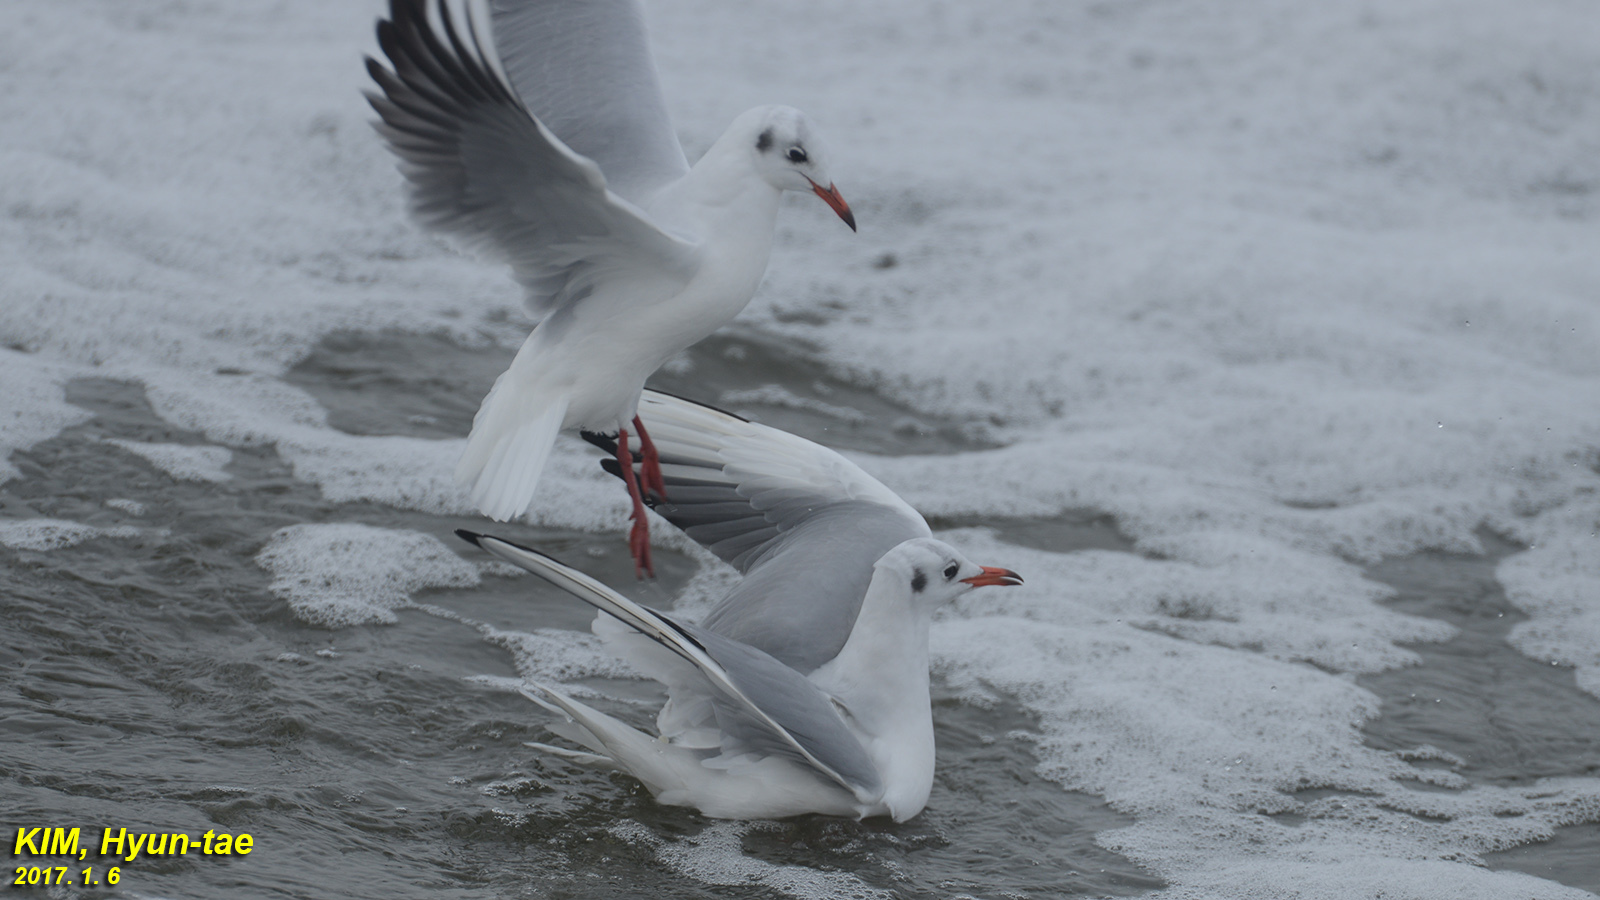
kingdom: Animalia
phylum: Chordata
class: Aves
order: Charadriiformes
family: Laridae
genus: Chroicocephalus
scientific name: Chroicocephalus ridibundus
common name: Black-headed gull
